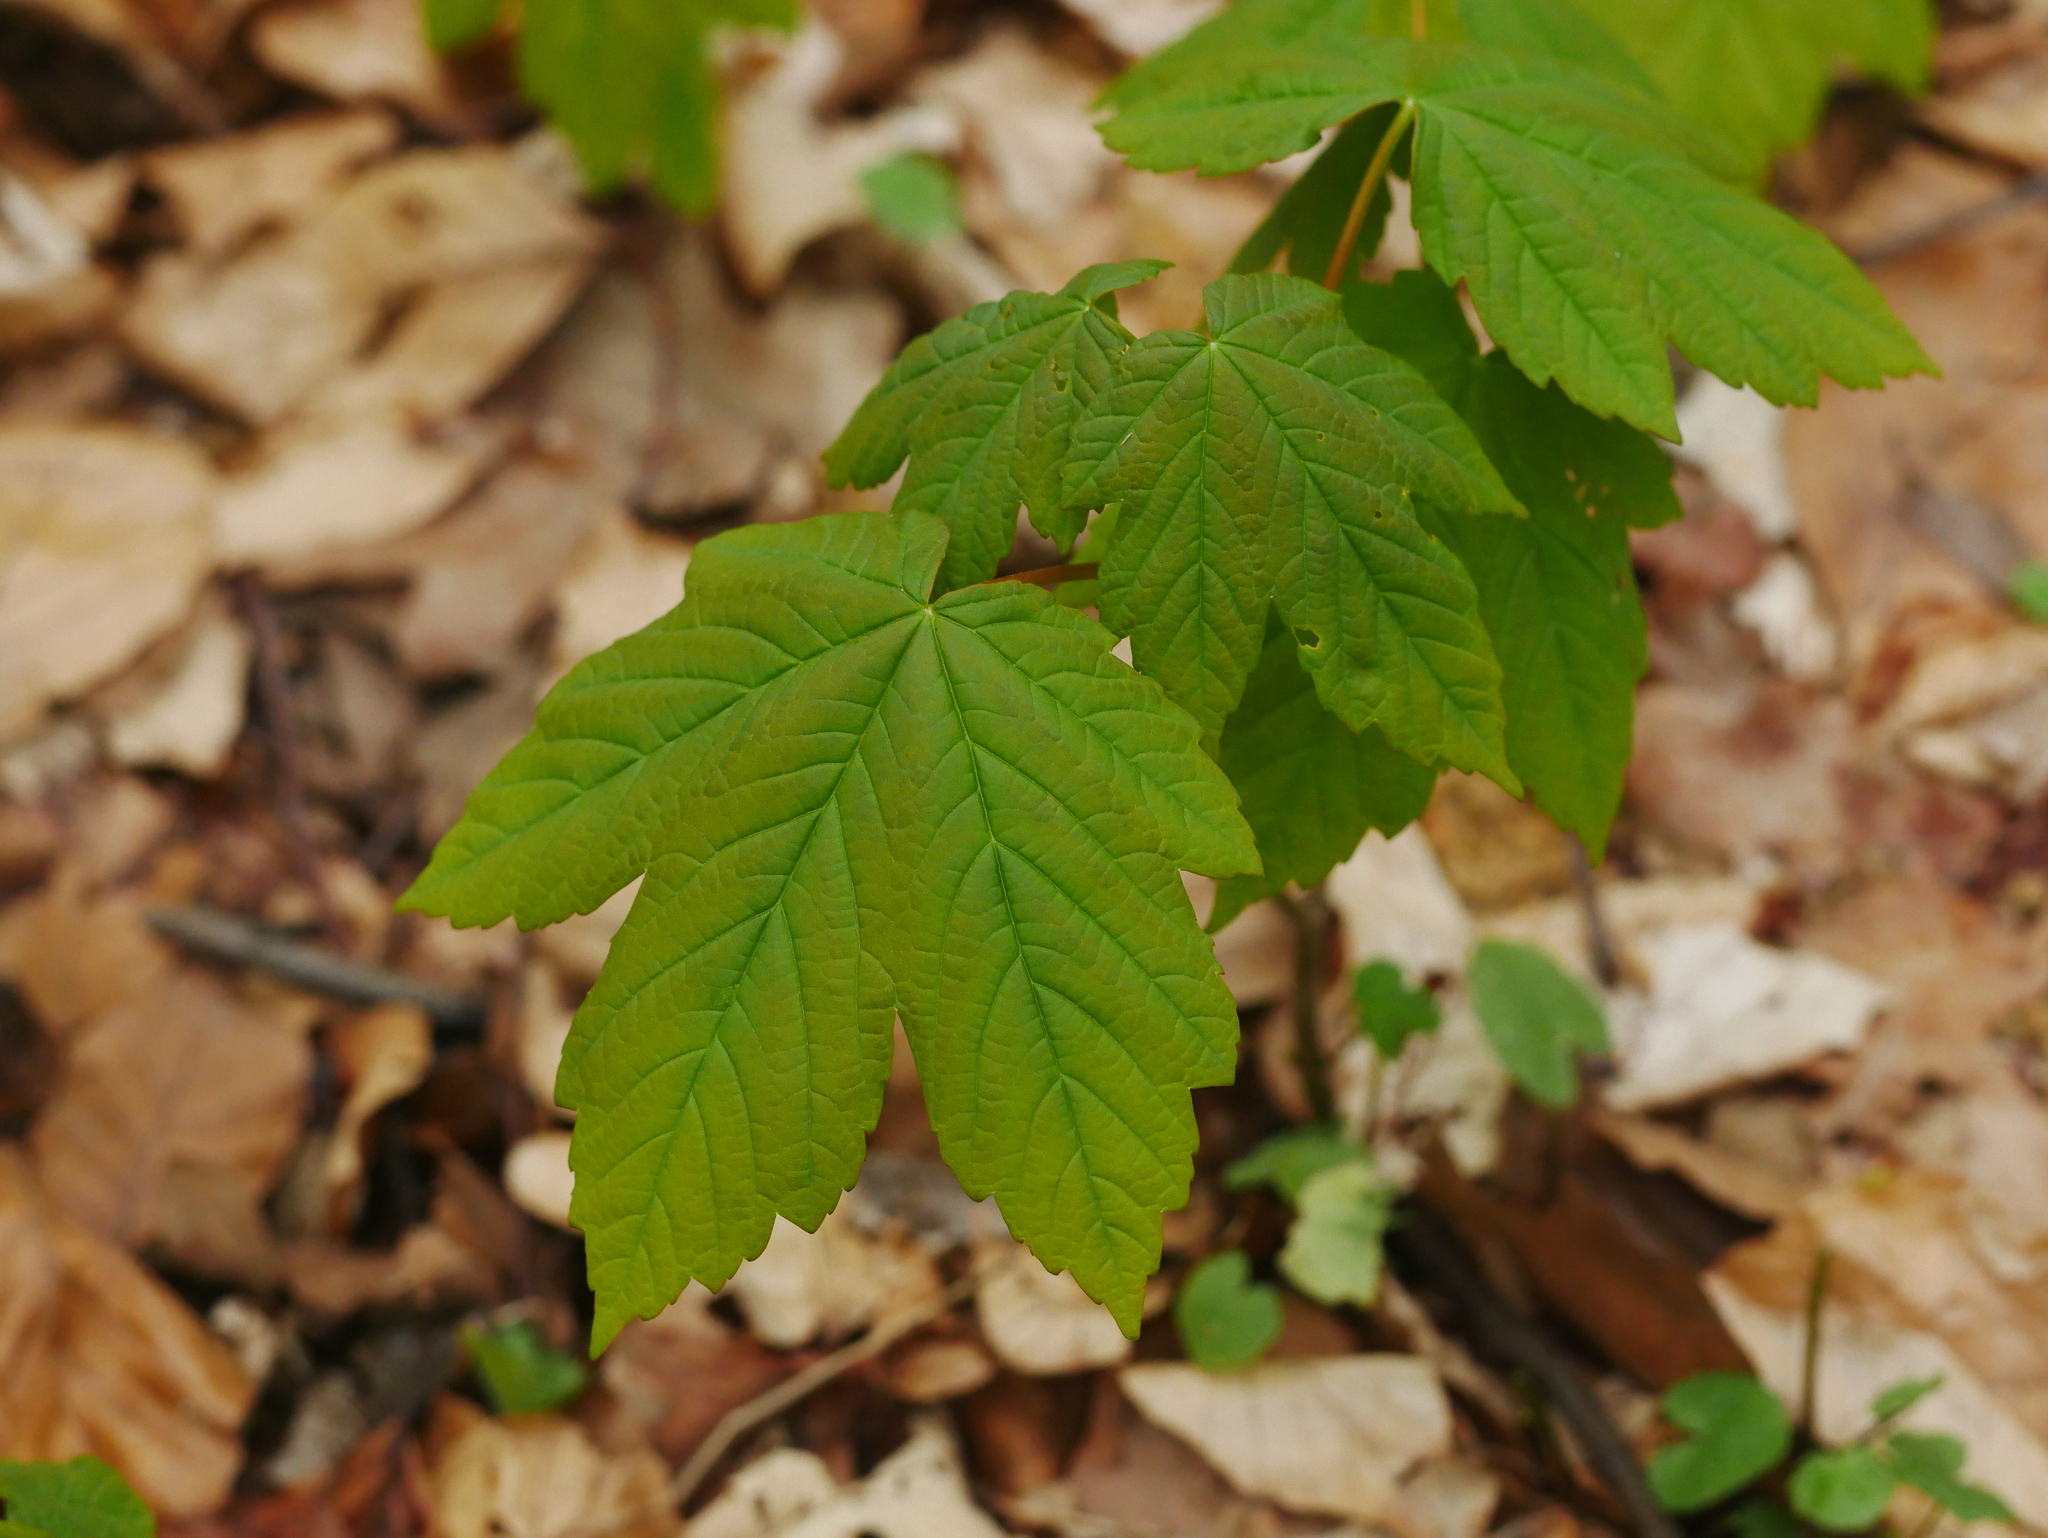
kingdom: Plantae
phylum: Tracheophyta
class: Magnoliopsida
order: Sapindales
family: Sapindaceae
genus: Acer
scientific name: Acer pseudoplatanus
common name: Sycamore
